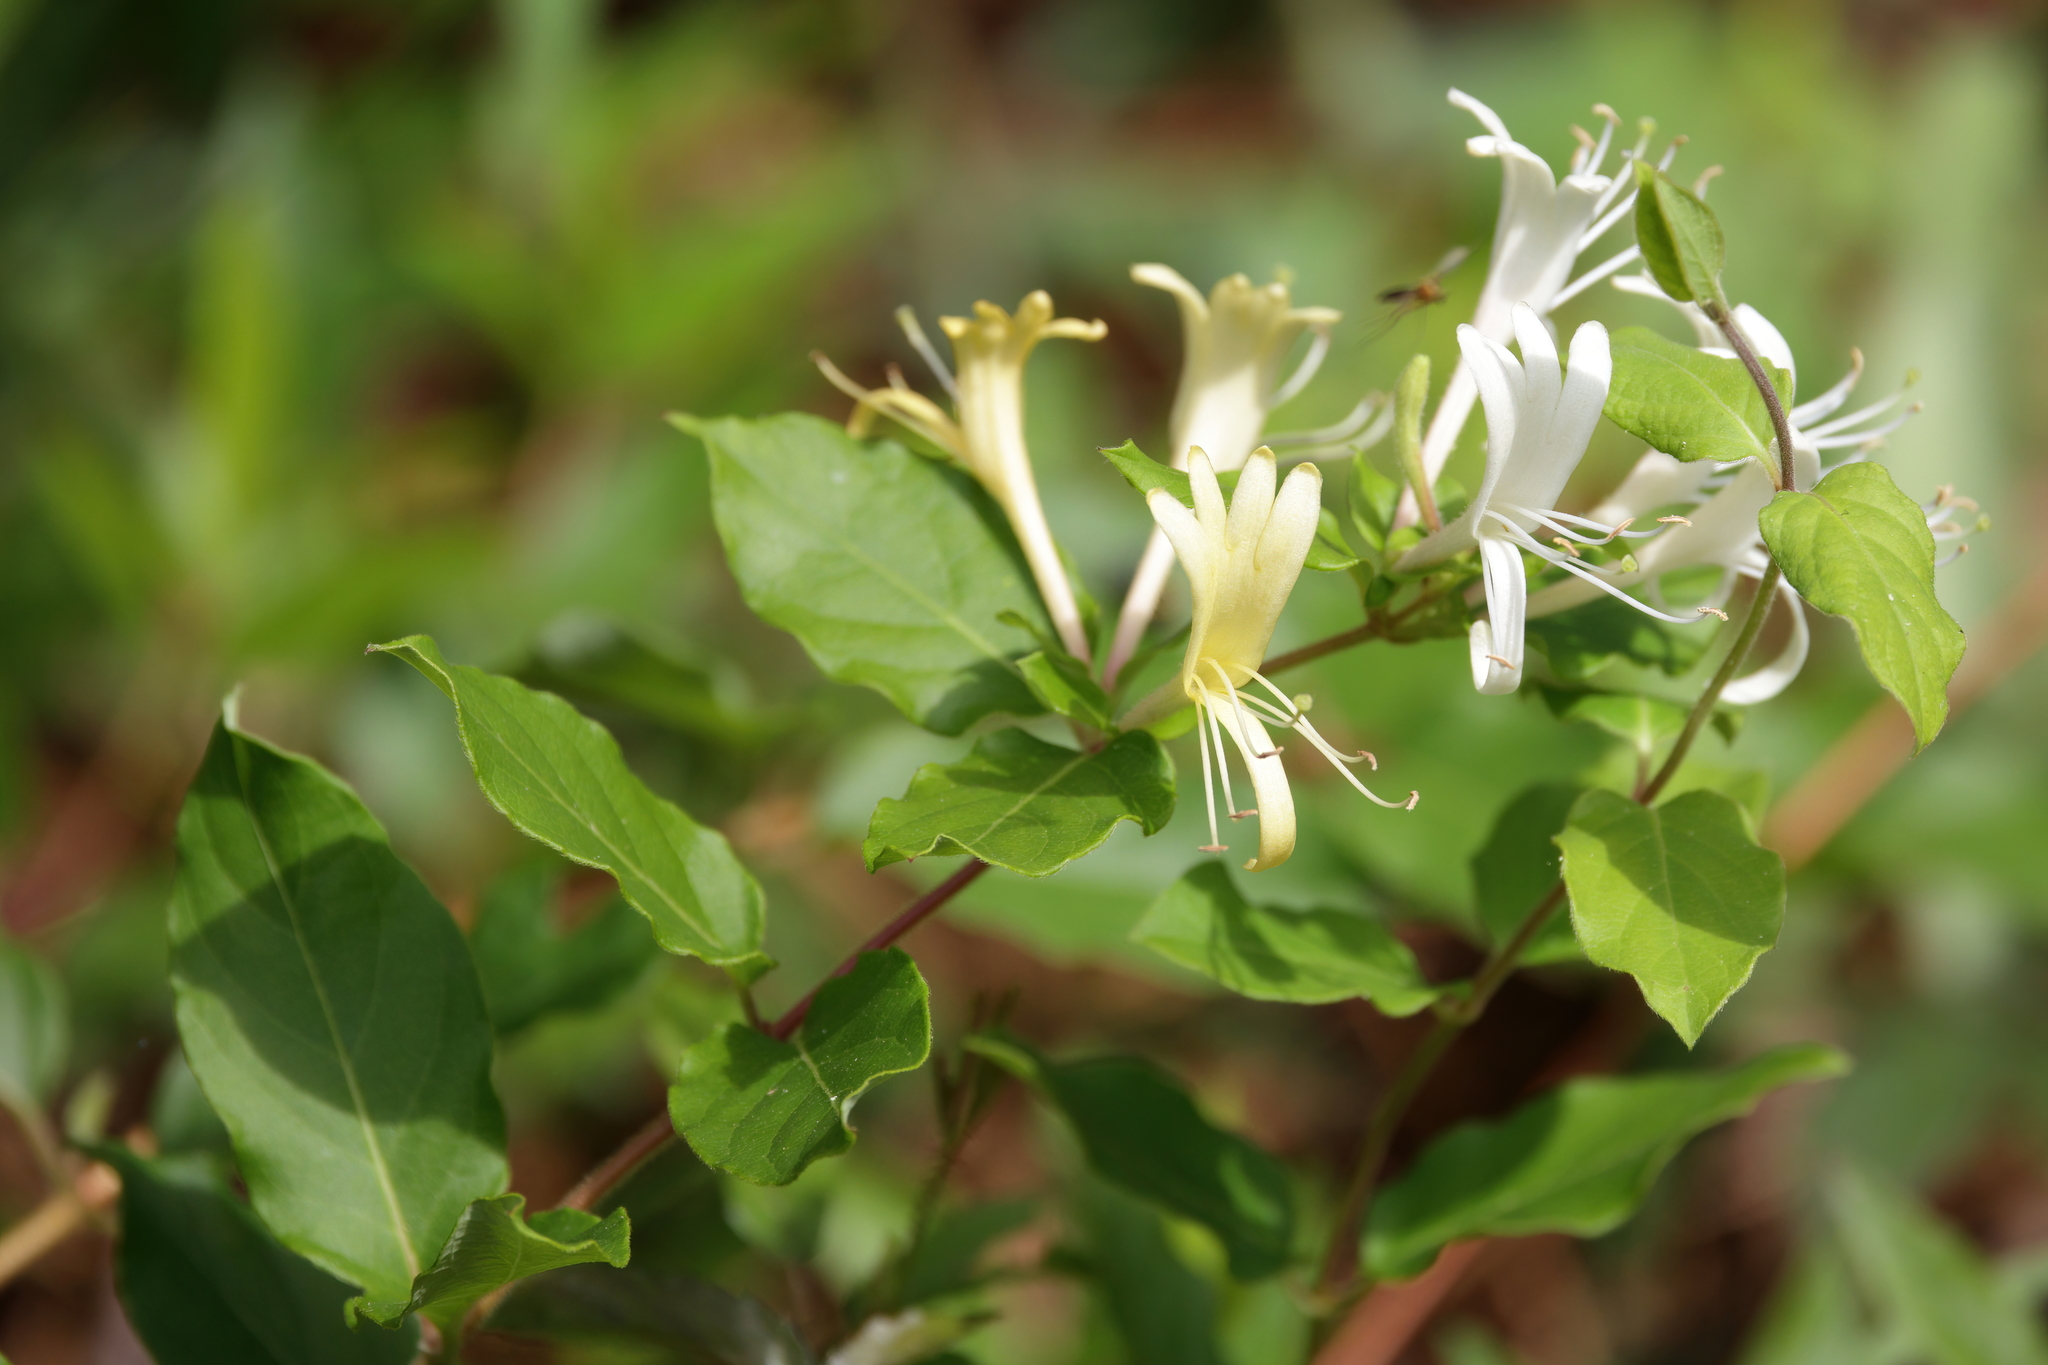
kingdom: Plantae
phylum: Tracheophyta
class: Magnoliopsida
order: Dipsacales
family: Caprifoliaceae
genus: Lonicera
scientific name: Lonicera japonica
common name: Japanese honeysuckle
